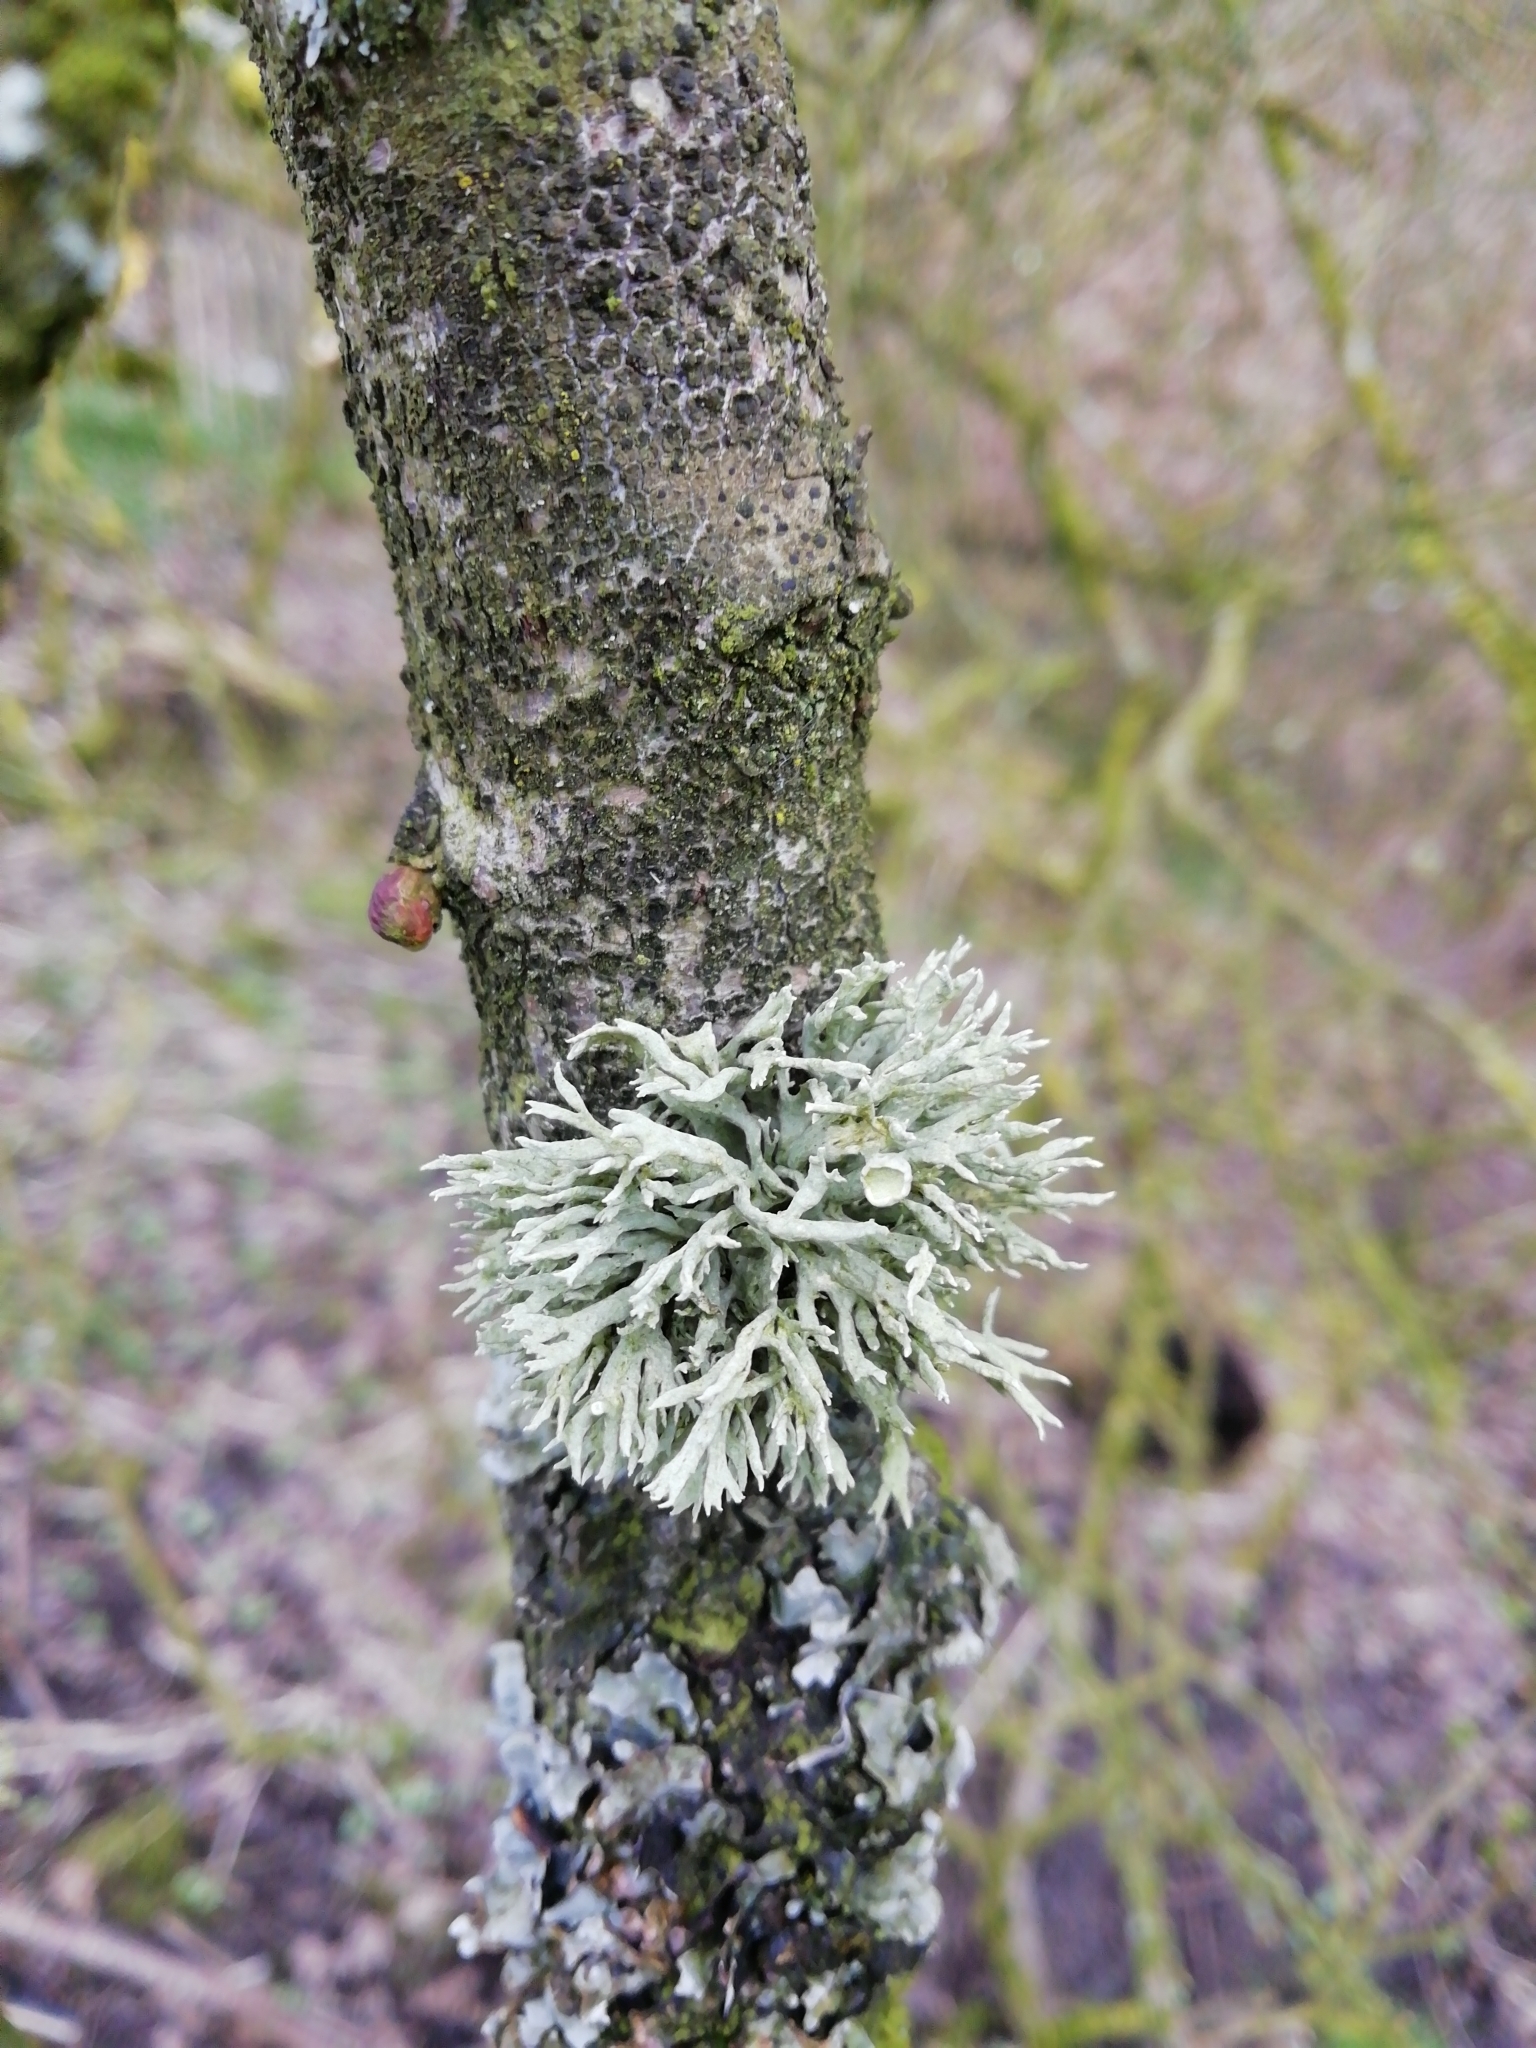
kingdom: Fungi
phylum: Ascomycota
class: Lecanoromycetes
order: Lecanorales
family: Ramalinaceae
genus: Ramalina
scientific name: Ramalina fastigiata
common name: Dotted ribbon lichen
